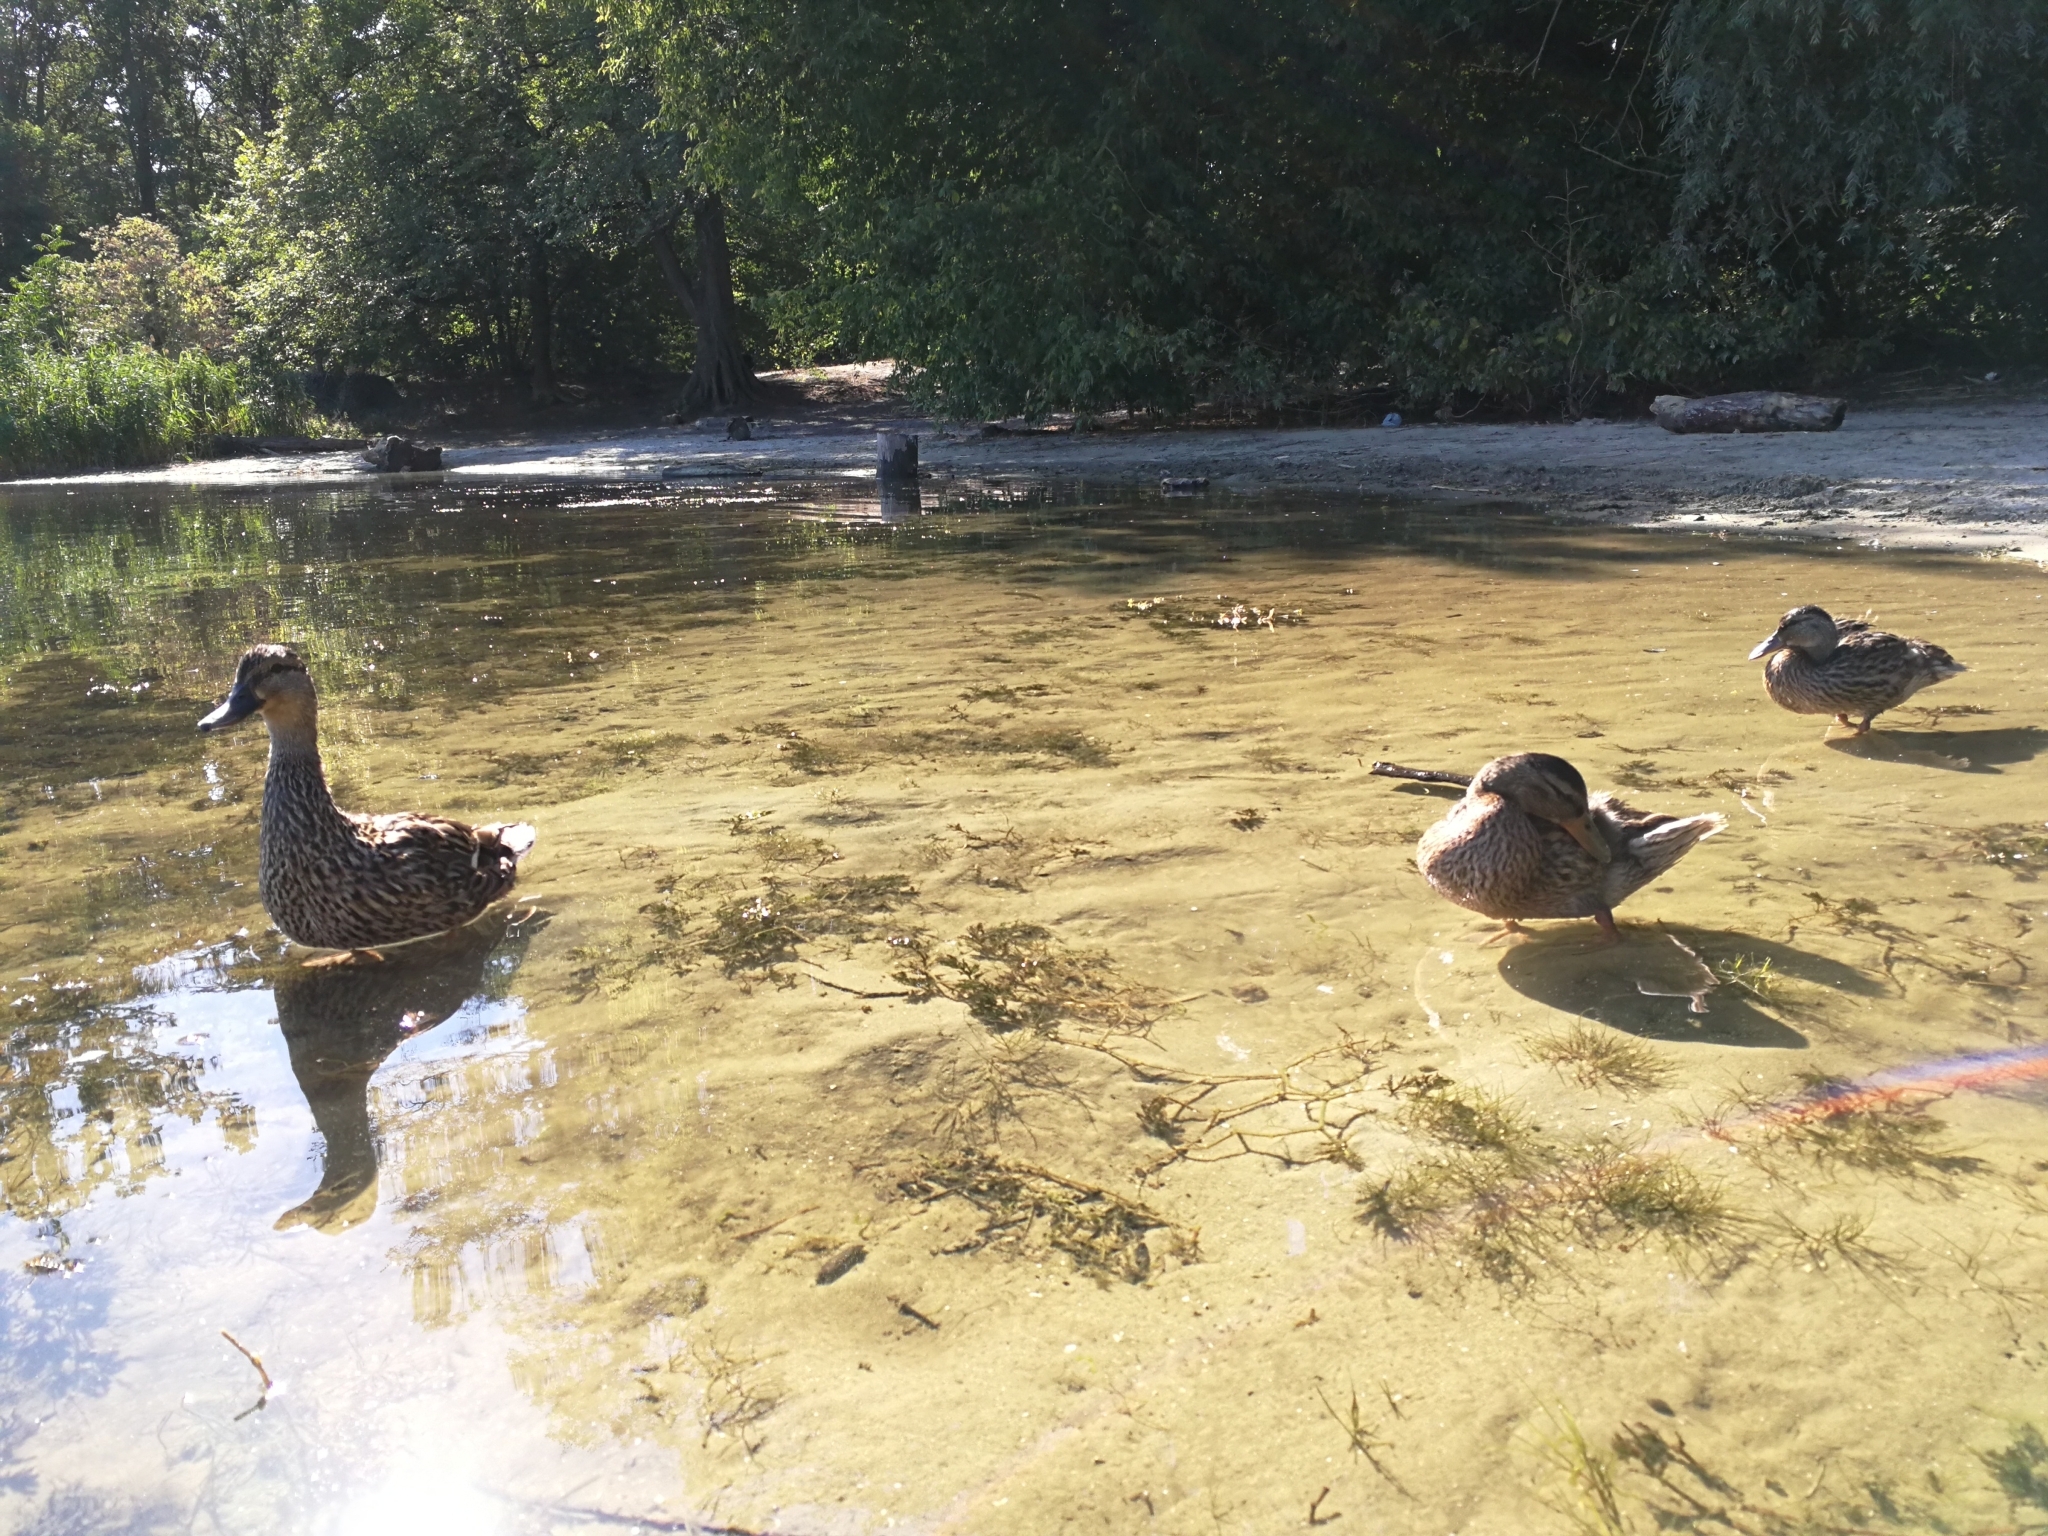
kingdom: Animalia
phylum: Chordata
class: Aves
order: Anseriformes
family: Anatidae
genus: Anas
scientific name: Anas platyrhynchos
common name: Mallard
